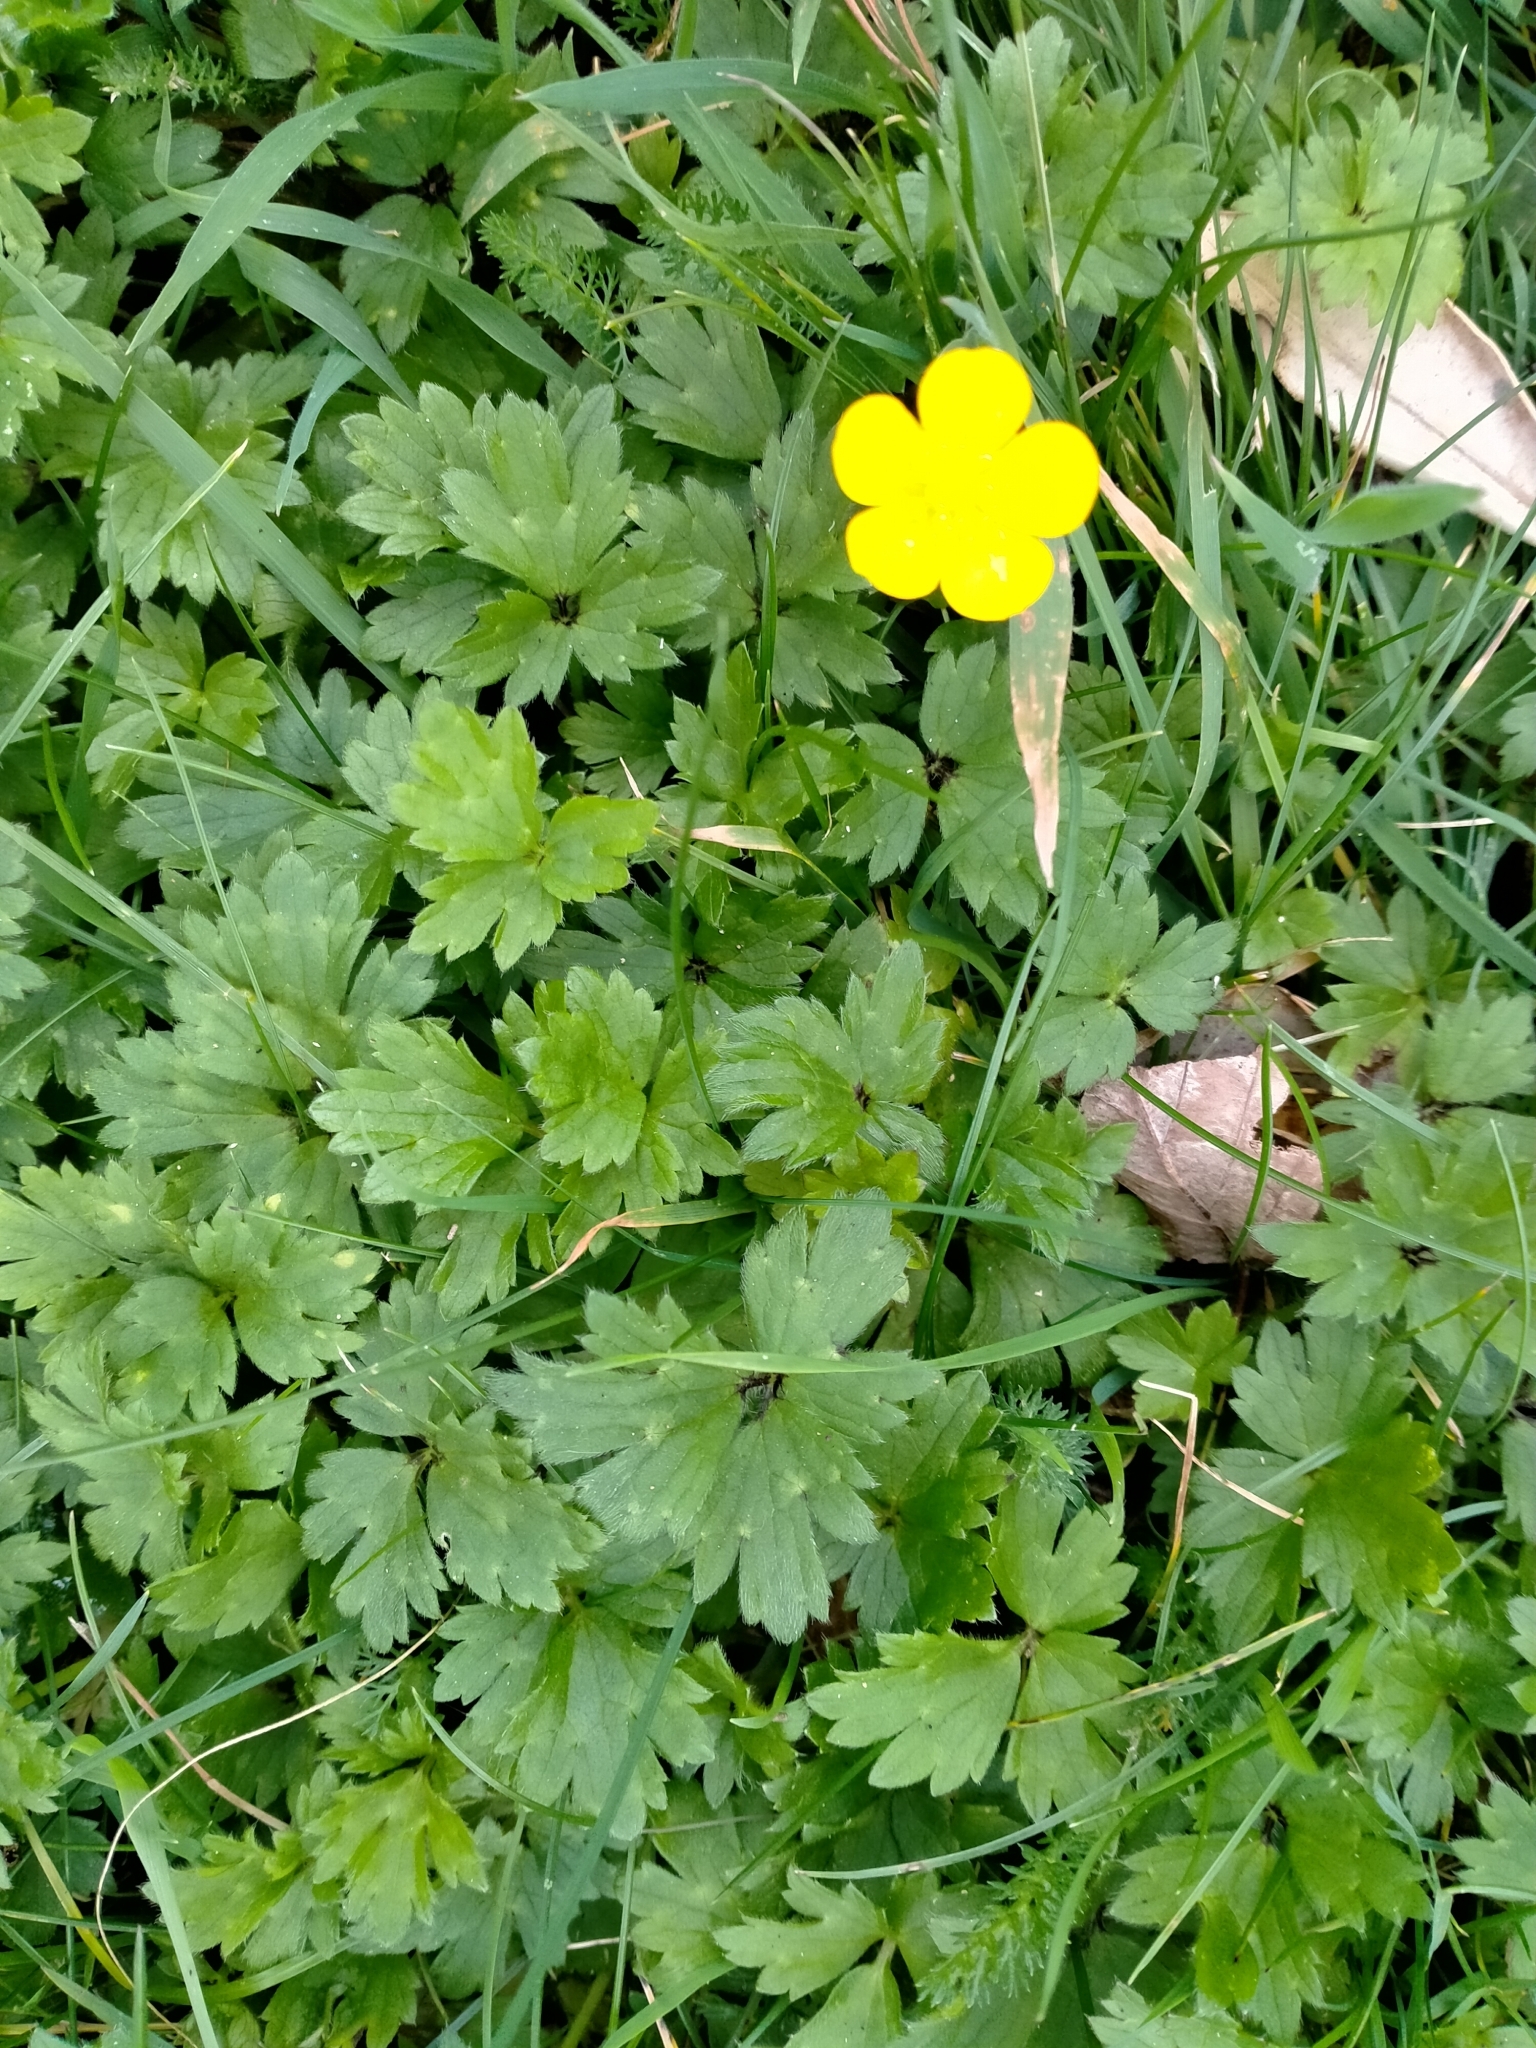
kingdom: Plantae
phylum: Tracheophyta
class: Magnoliopsida
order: Ranunculales
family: Ranunculaceae
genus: Ranunculus
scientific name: Ranunculus repens
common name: Creeping buttercup
